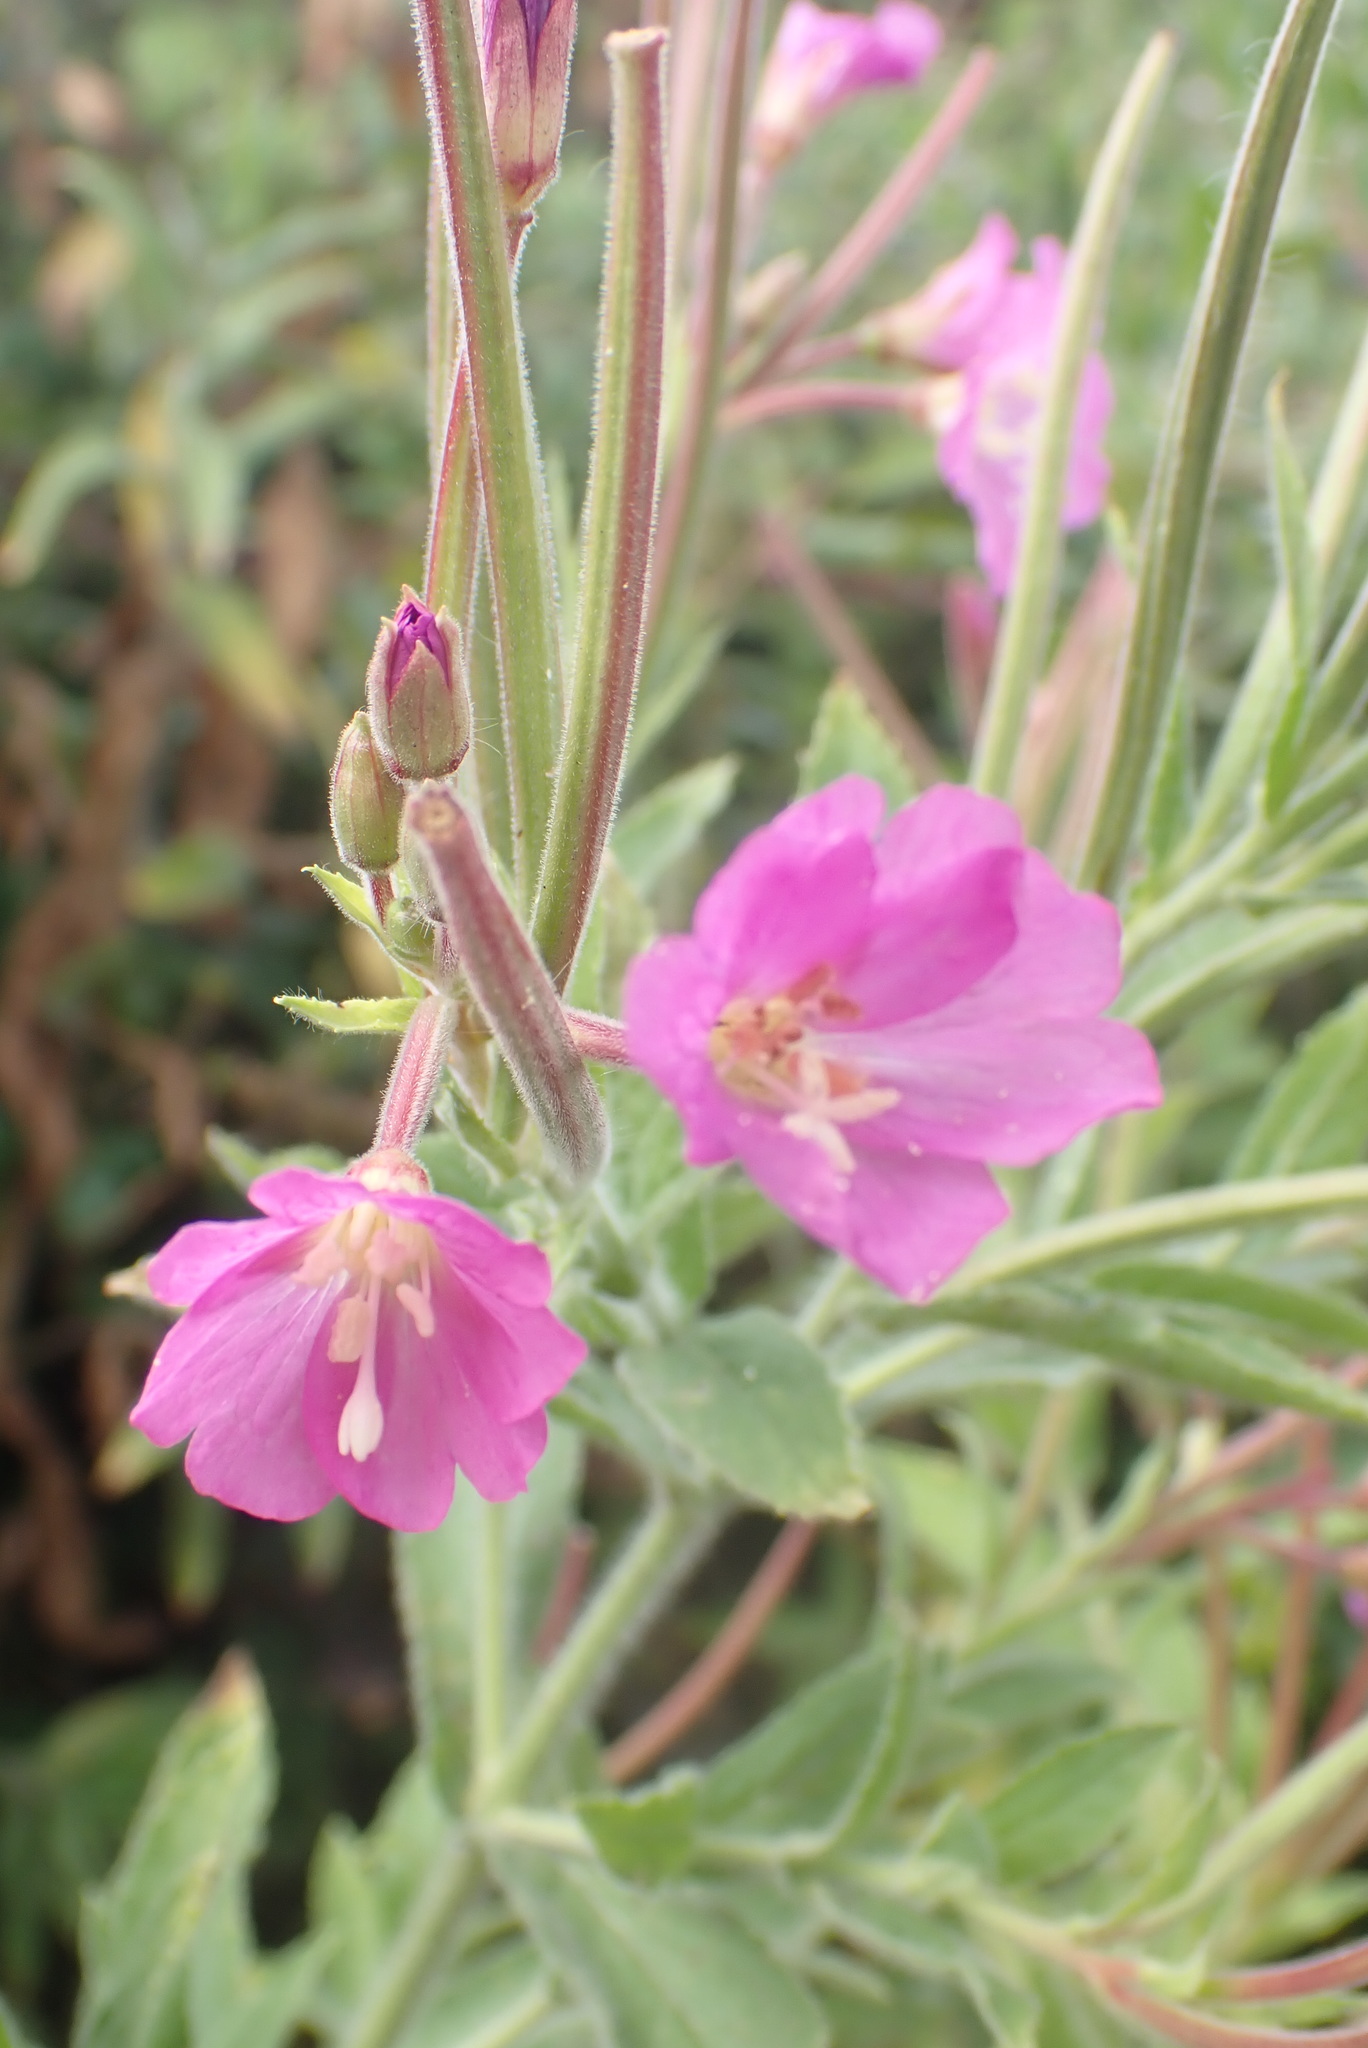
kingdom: Plantae
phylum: Tracheophyta
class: Magnoliopsida
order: Myrtales
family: Onagraceae
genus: Epilobium
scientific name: Epilobium hirsutum
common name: Great willowherb
